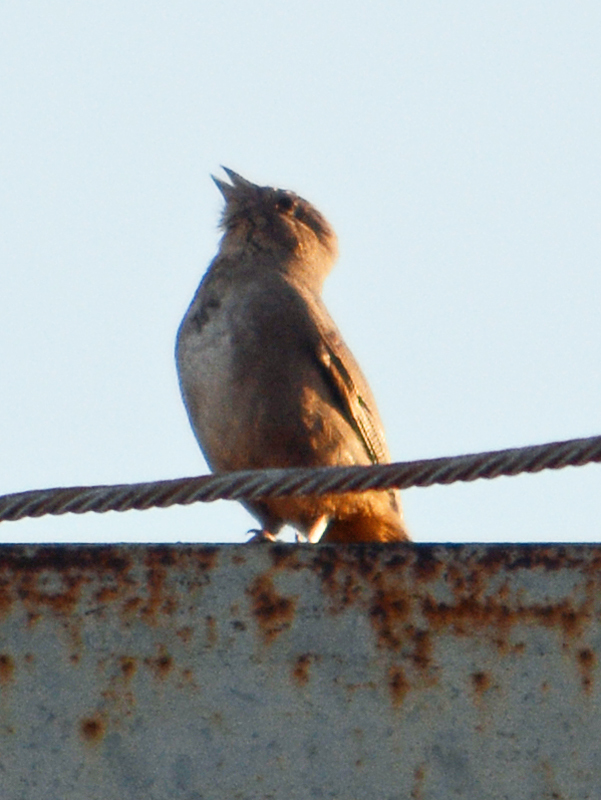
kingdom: Animalia
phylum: Chordata
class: Aves
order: Passeriformes
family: Passerellidae
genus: Melozone
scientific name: Melozone fusca
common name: Canyon towhee
